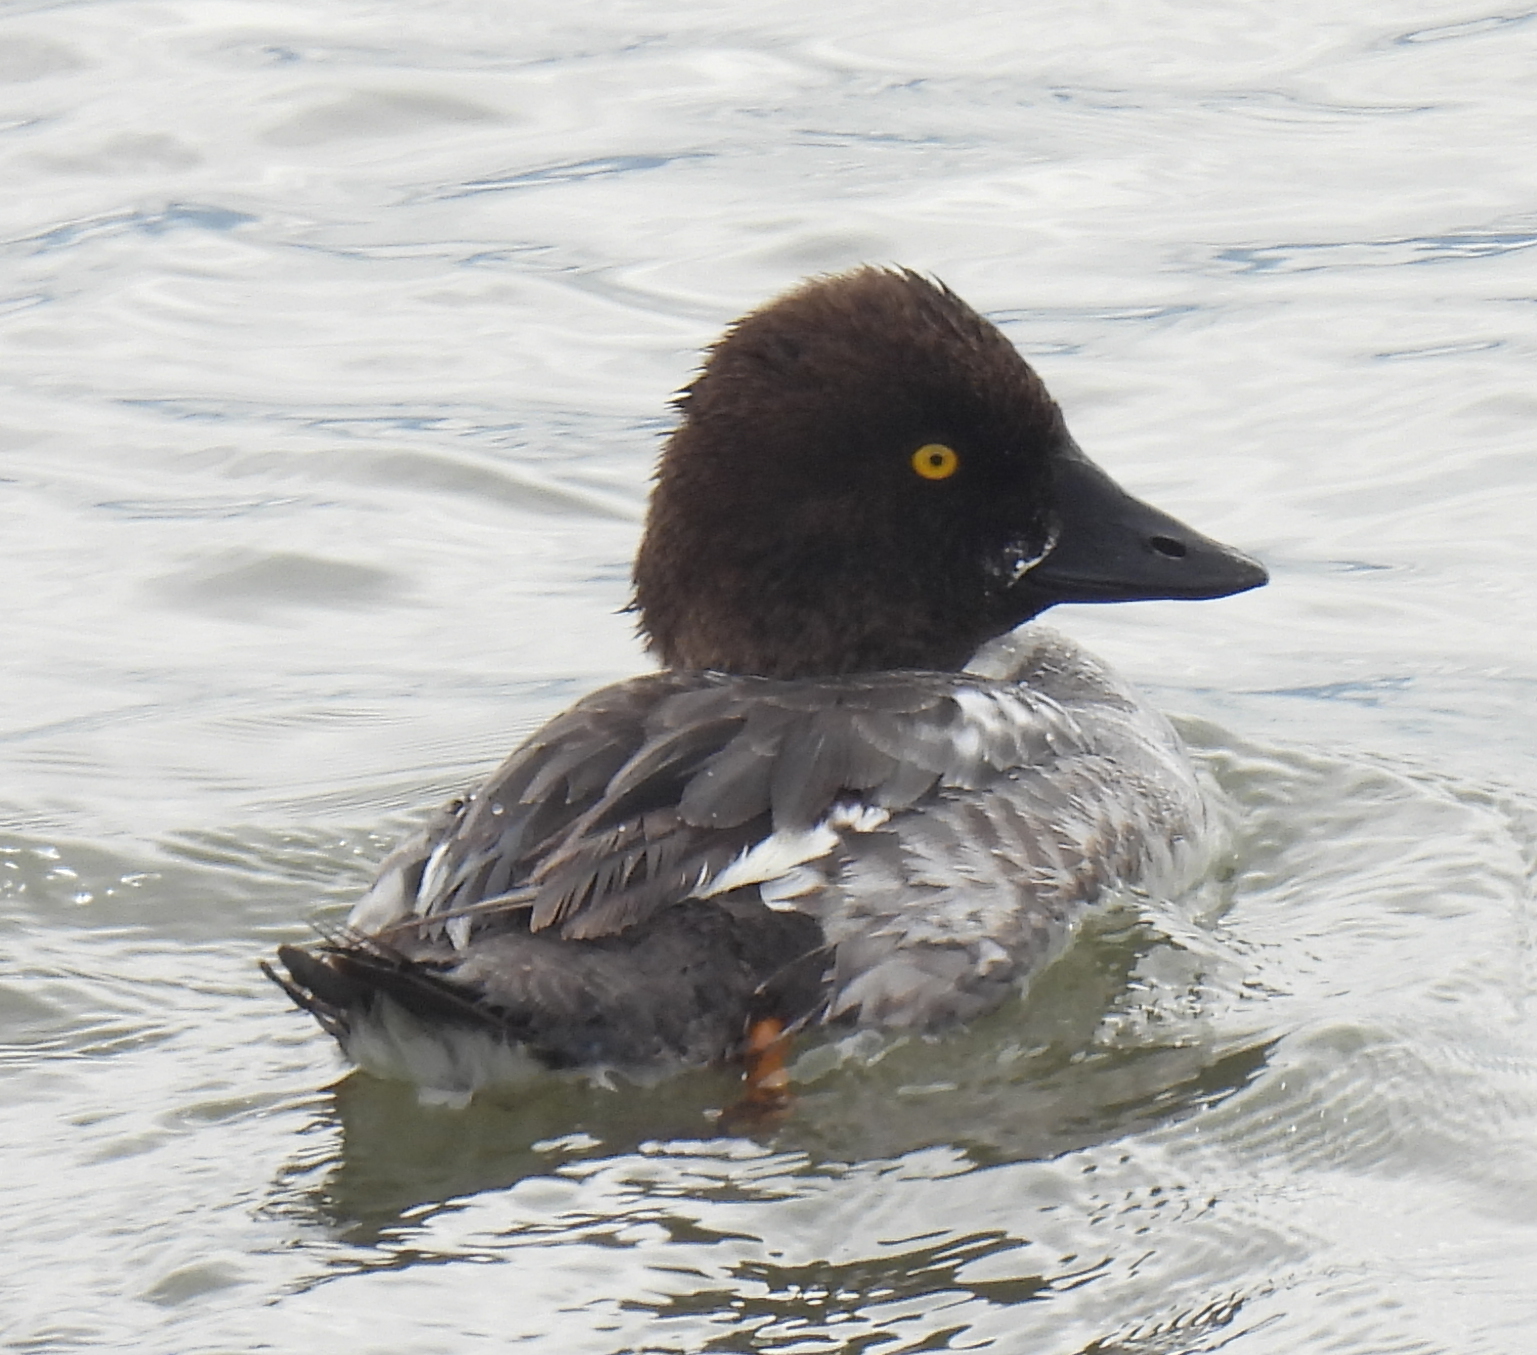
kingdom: Animalia
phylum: Chordata
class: Aves
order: Anseriformes
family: Anatidae
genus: Bucephala
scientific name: Bucephala clangula
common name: Common goldeneye
